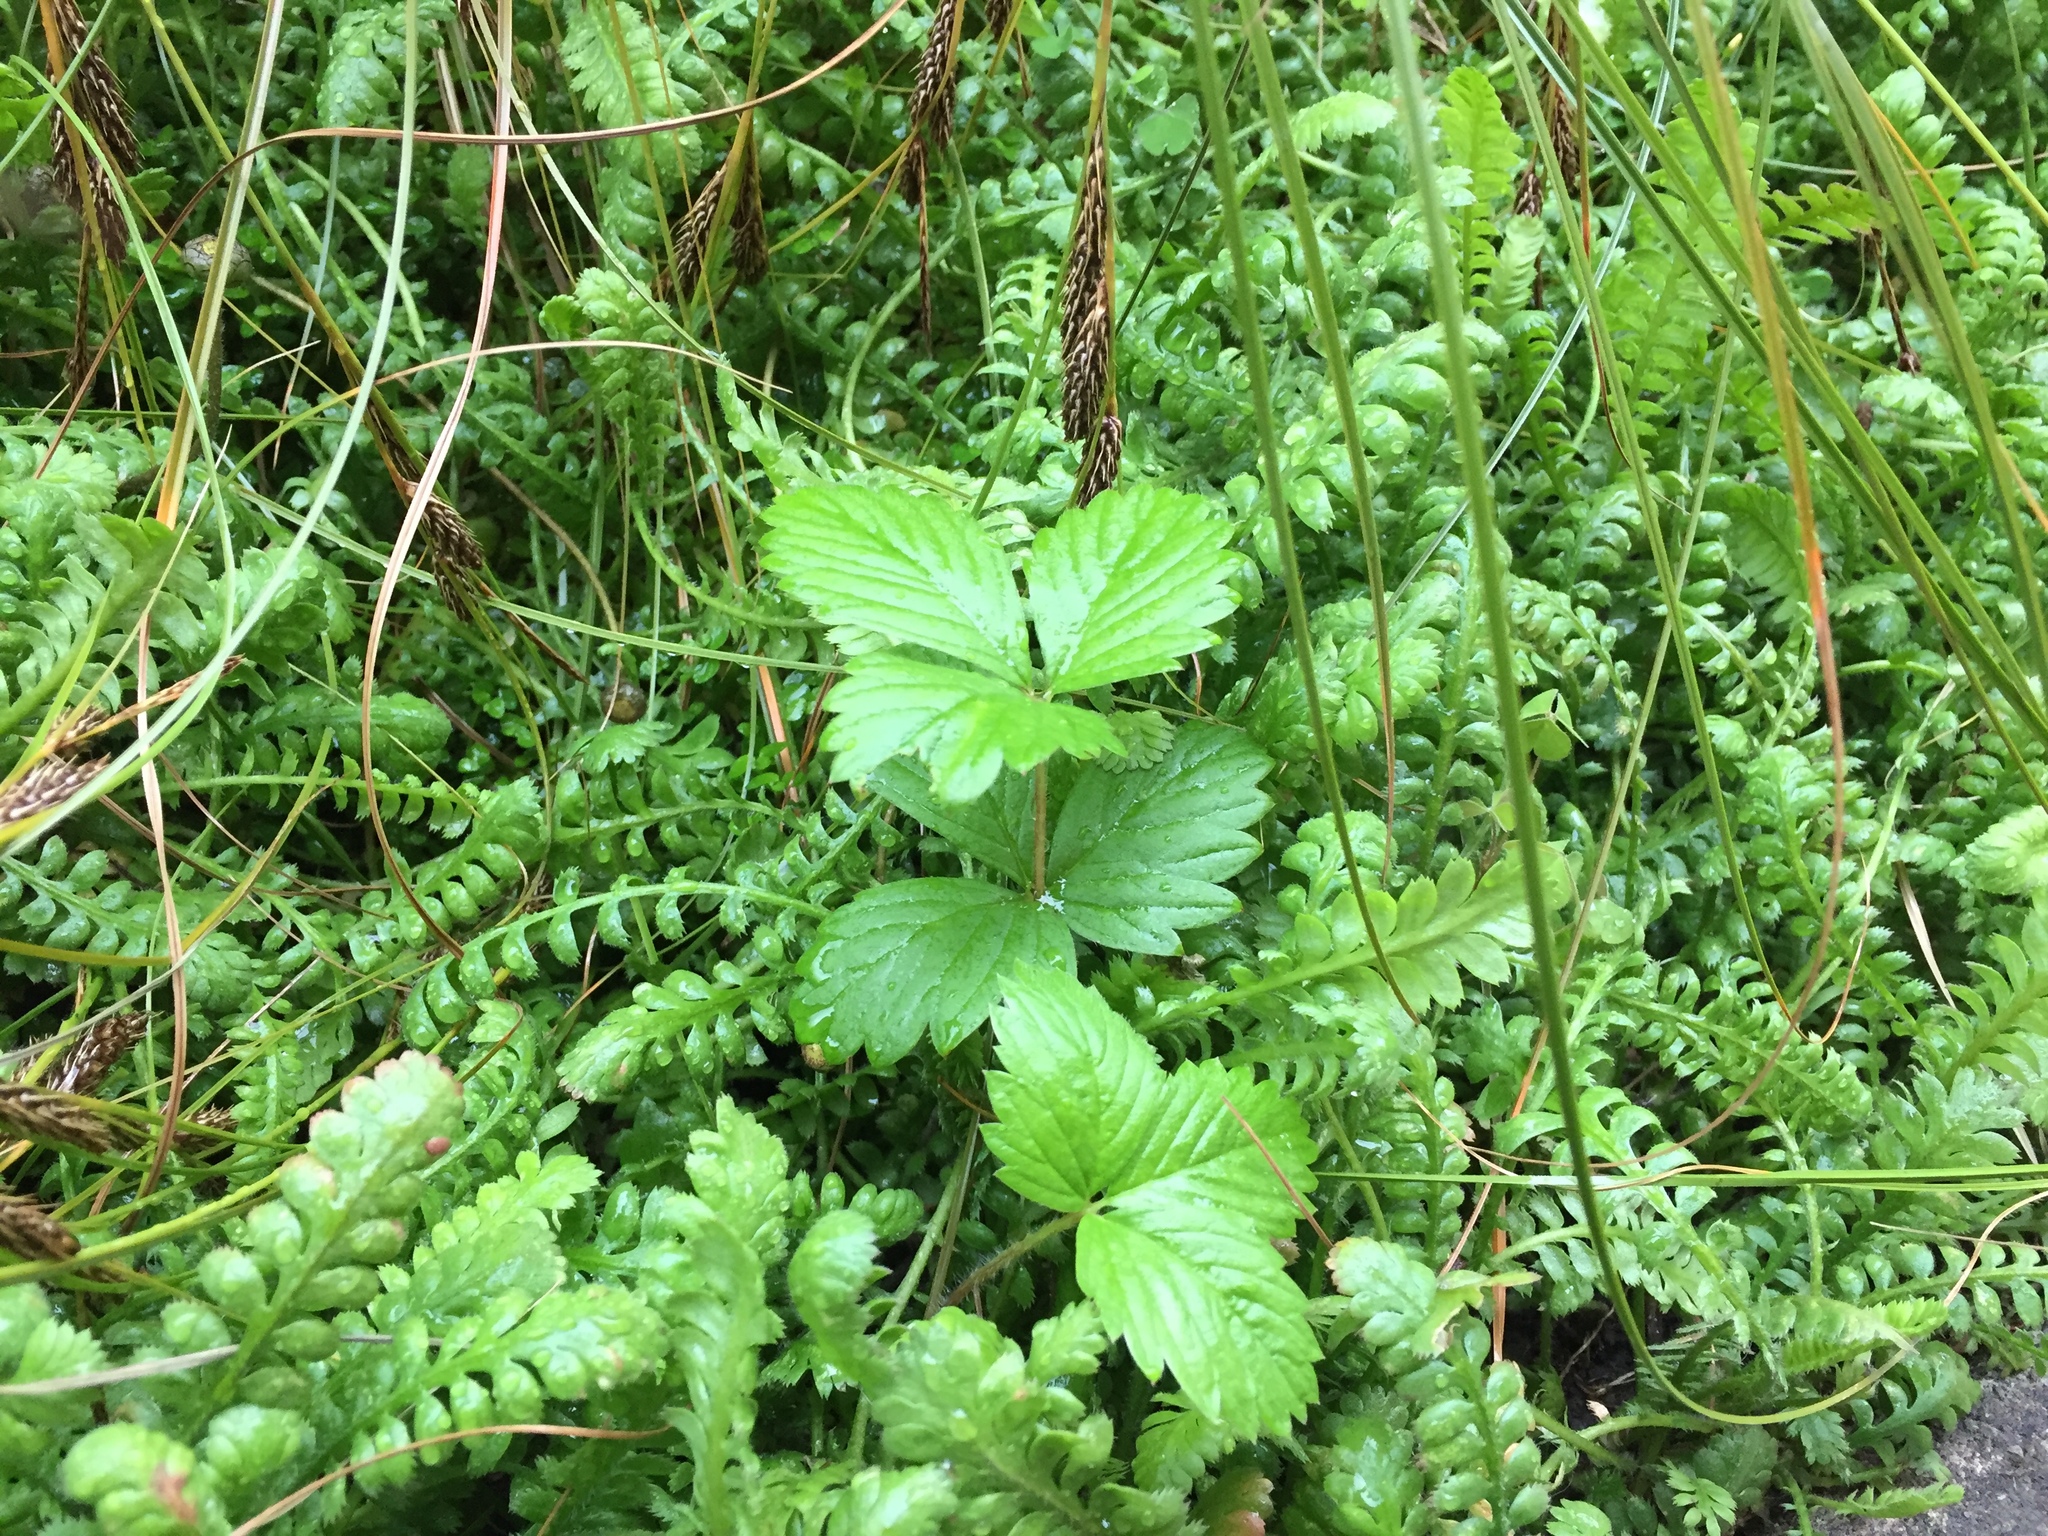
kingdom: Plantae
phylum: Tracheophyta
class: Magnoliopsida
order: Rosales
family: Rosaceae
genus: Fragaria
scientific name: Fragaria vesca
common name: Wild strawberry
